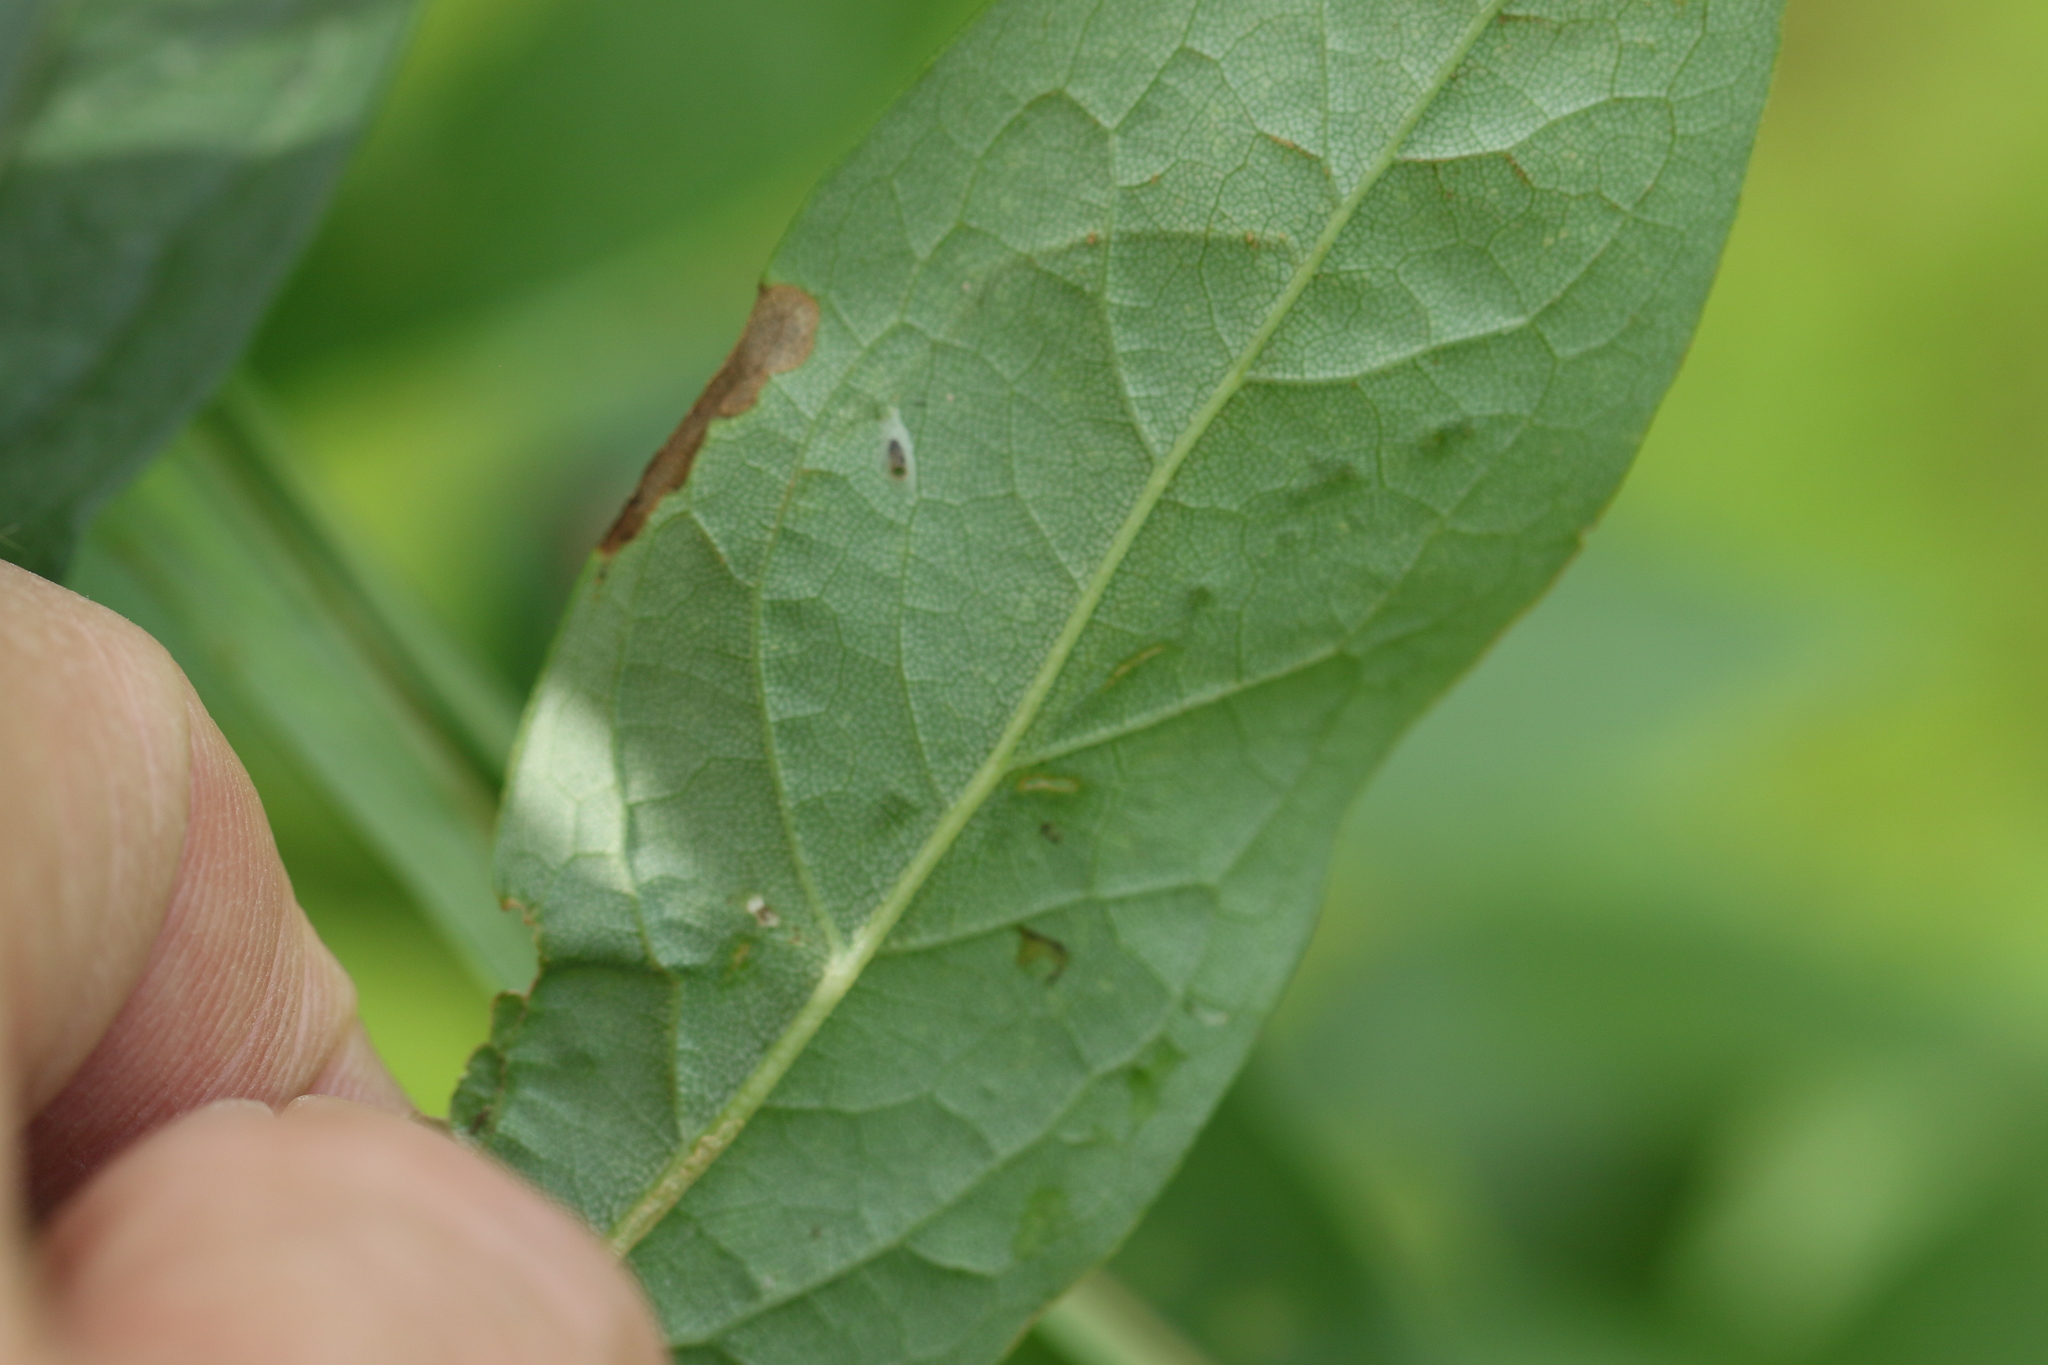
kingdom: Animalia
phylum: Arthropoda
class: Insecta
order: Diptera
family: Agromyzidae
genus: Ophiomyia
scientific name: Ophiomyia maura
